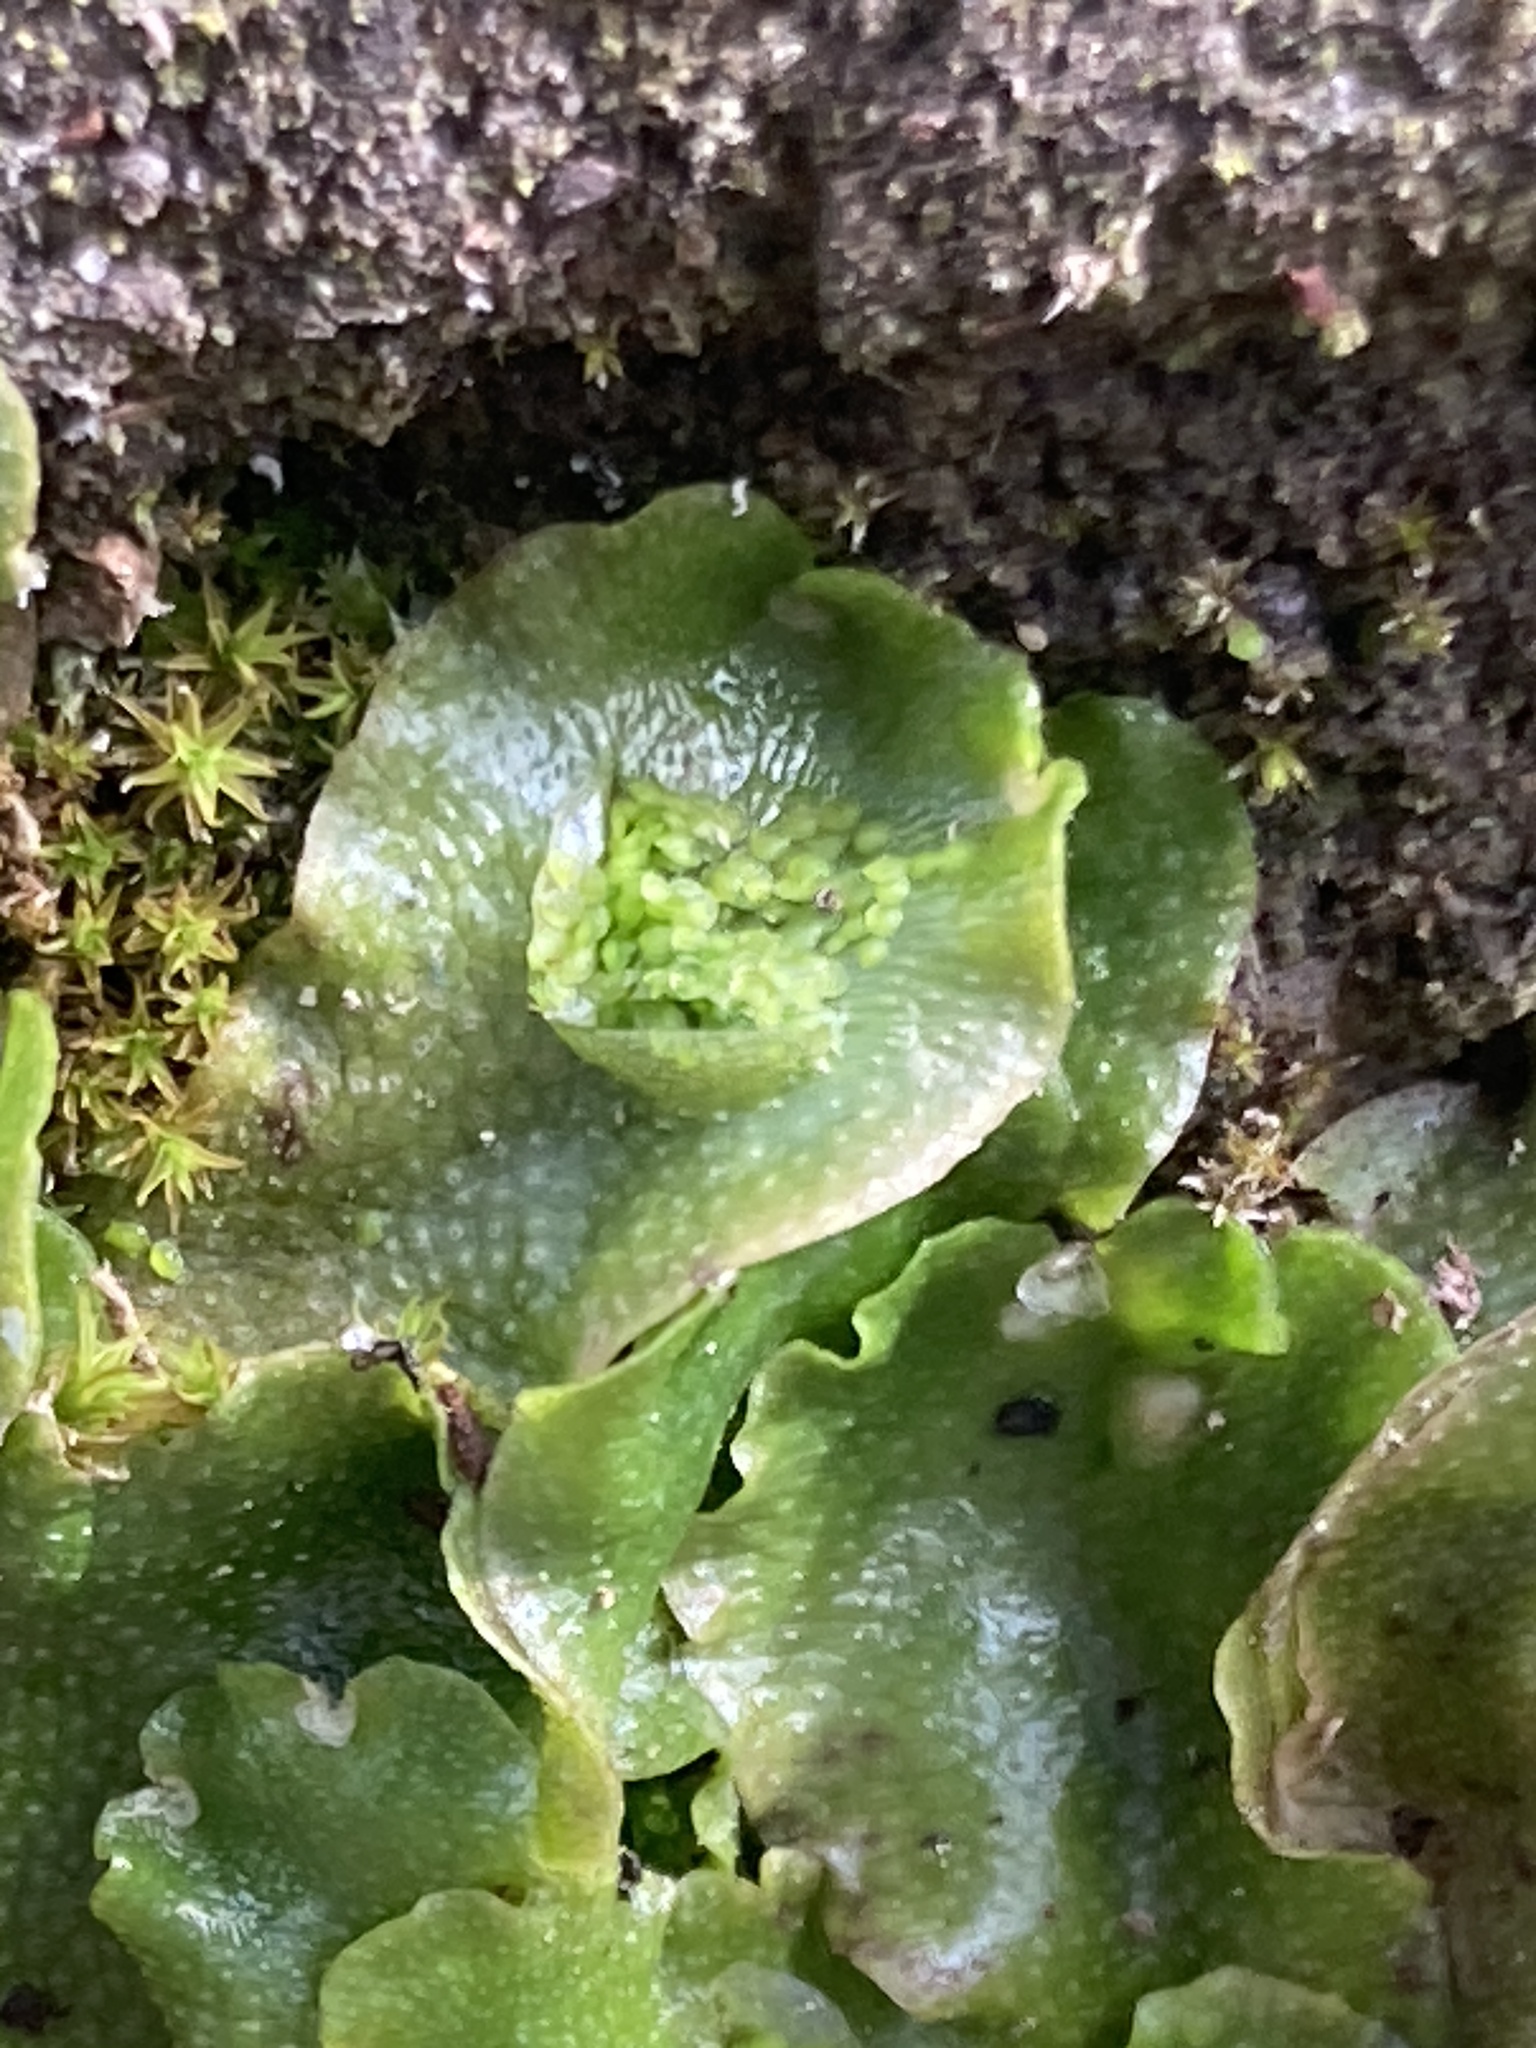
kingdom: Plantae
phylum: Marchantiophyta
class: Marchantiopsida
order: Lunulariales
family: Lunulariaceae
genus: Lunularia
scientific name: Lunularia cruciata
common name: Crescent-cup liverwort
